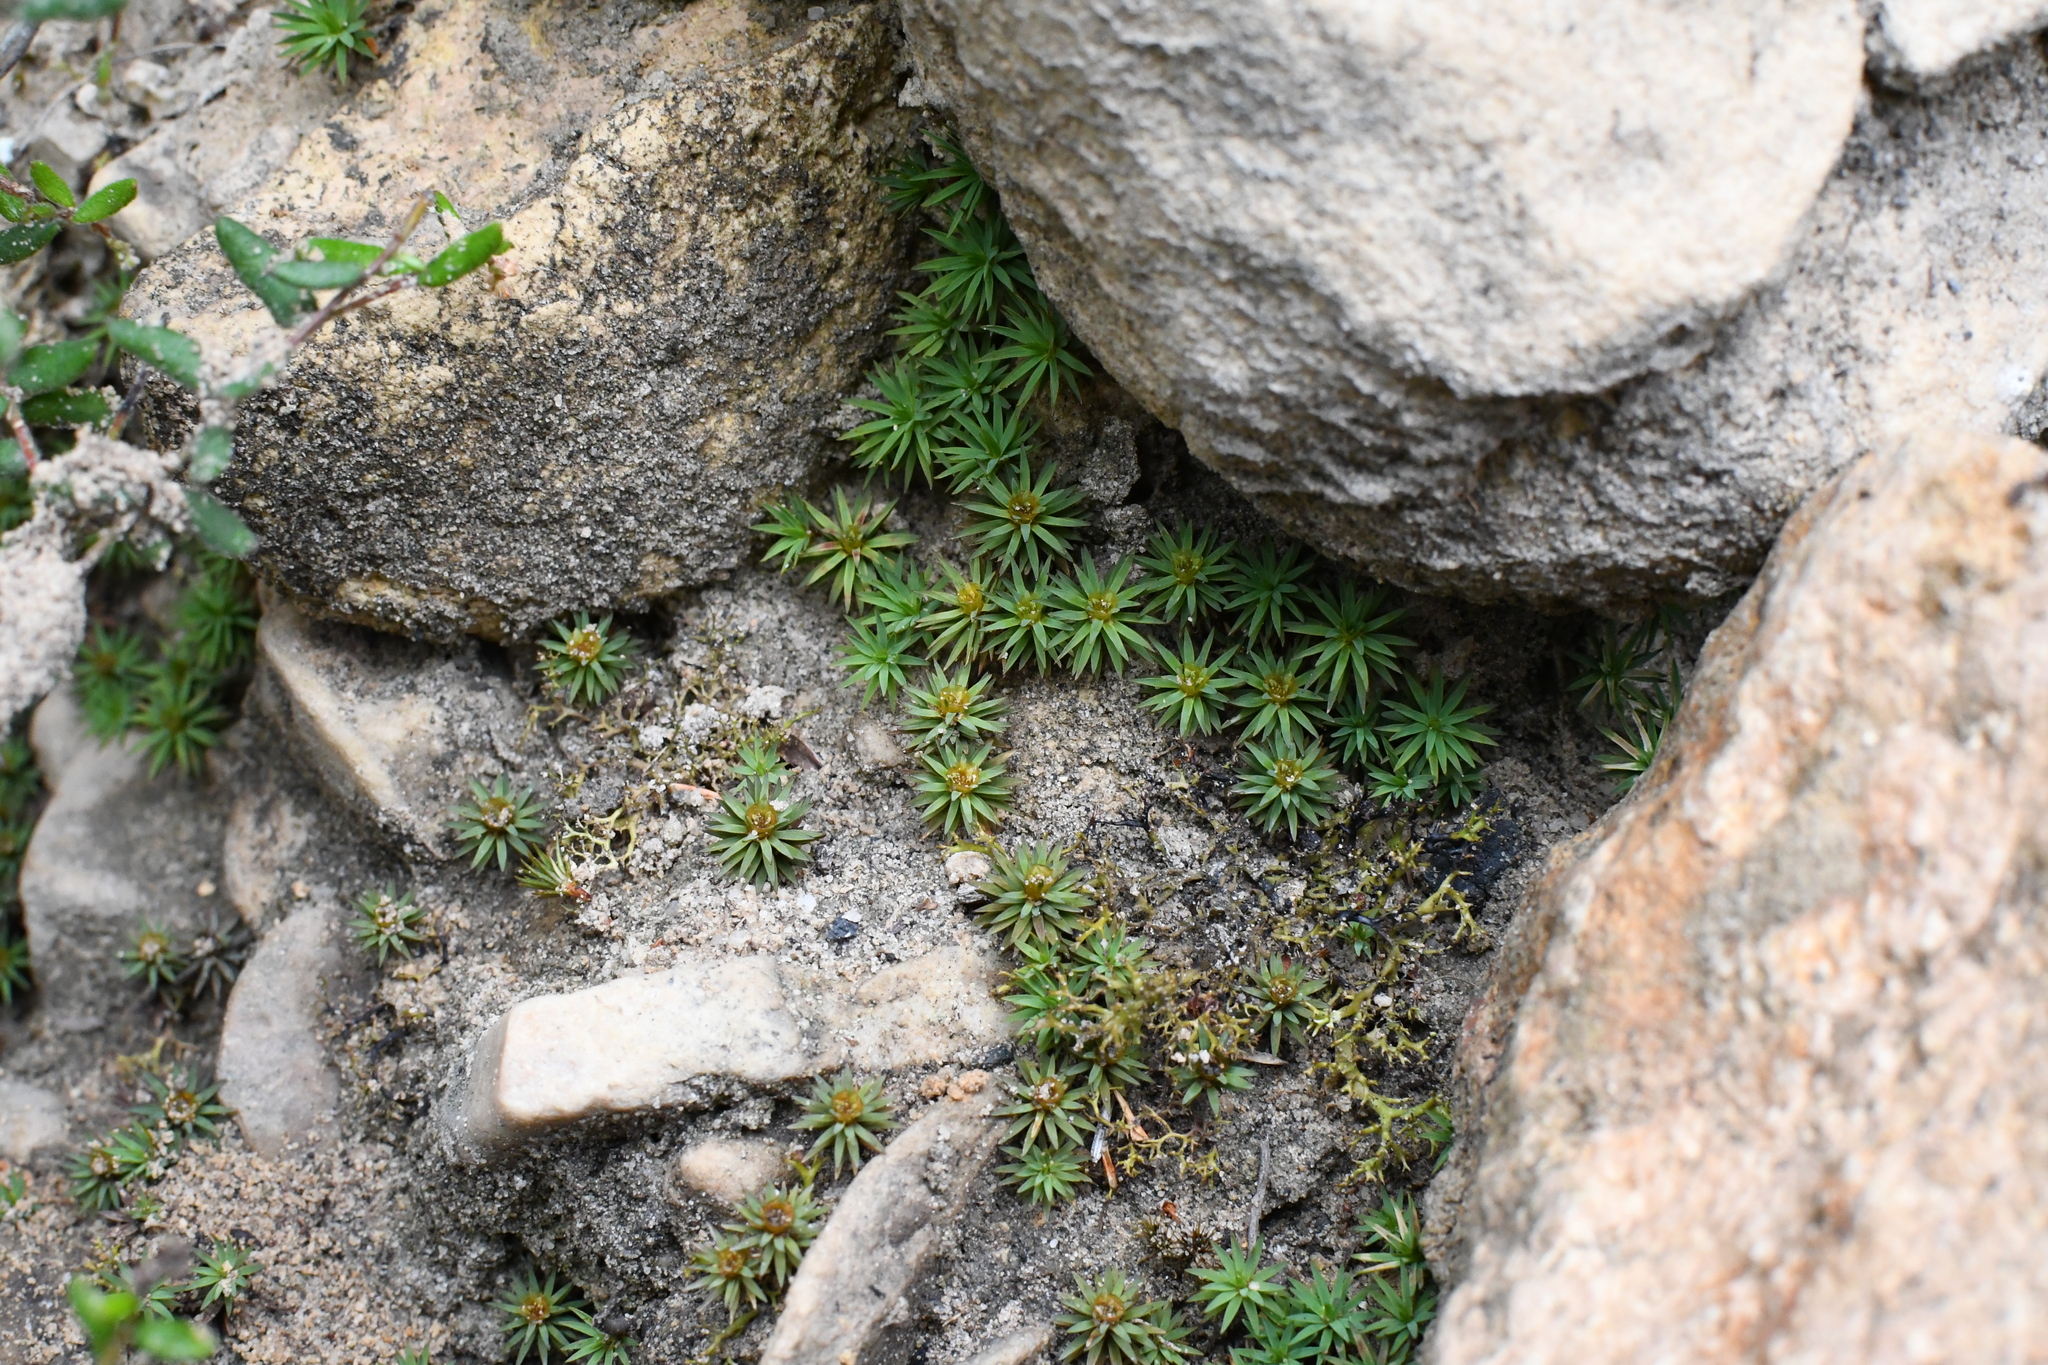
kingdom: Plantae
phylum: Bryophyta
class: Polytrichopsida
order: Polytrichales
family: Polytrichaceae
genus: Dawsonia
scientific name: Dawsonia longiseta
